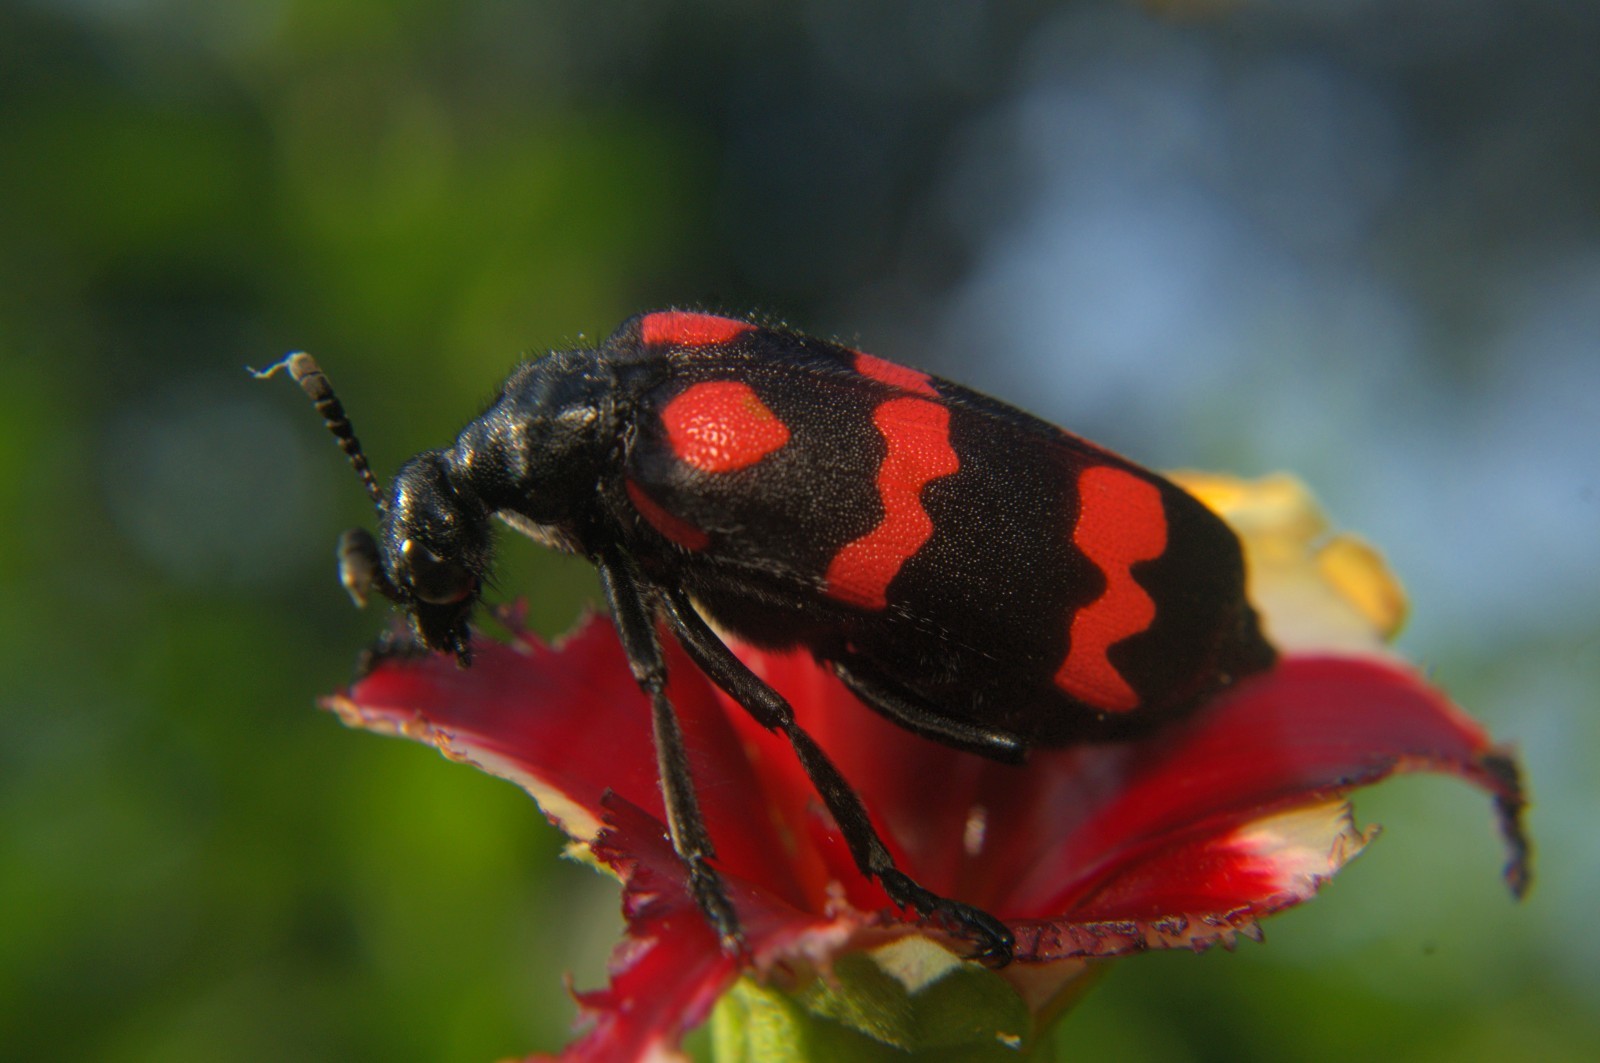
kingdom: Animalia
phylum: Arthropoda
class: Insecta
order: Coleoptera
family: Meloidae
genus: Hycleus
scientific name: Hycleus biundulatus
